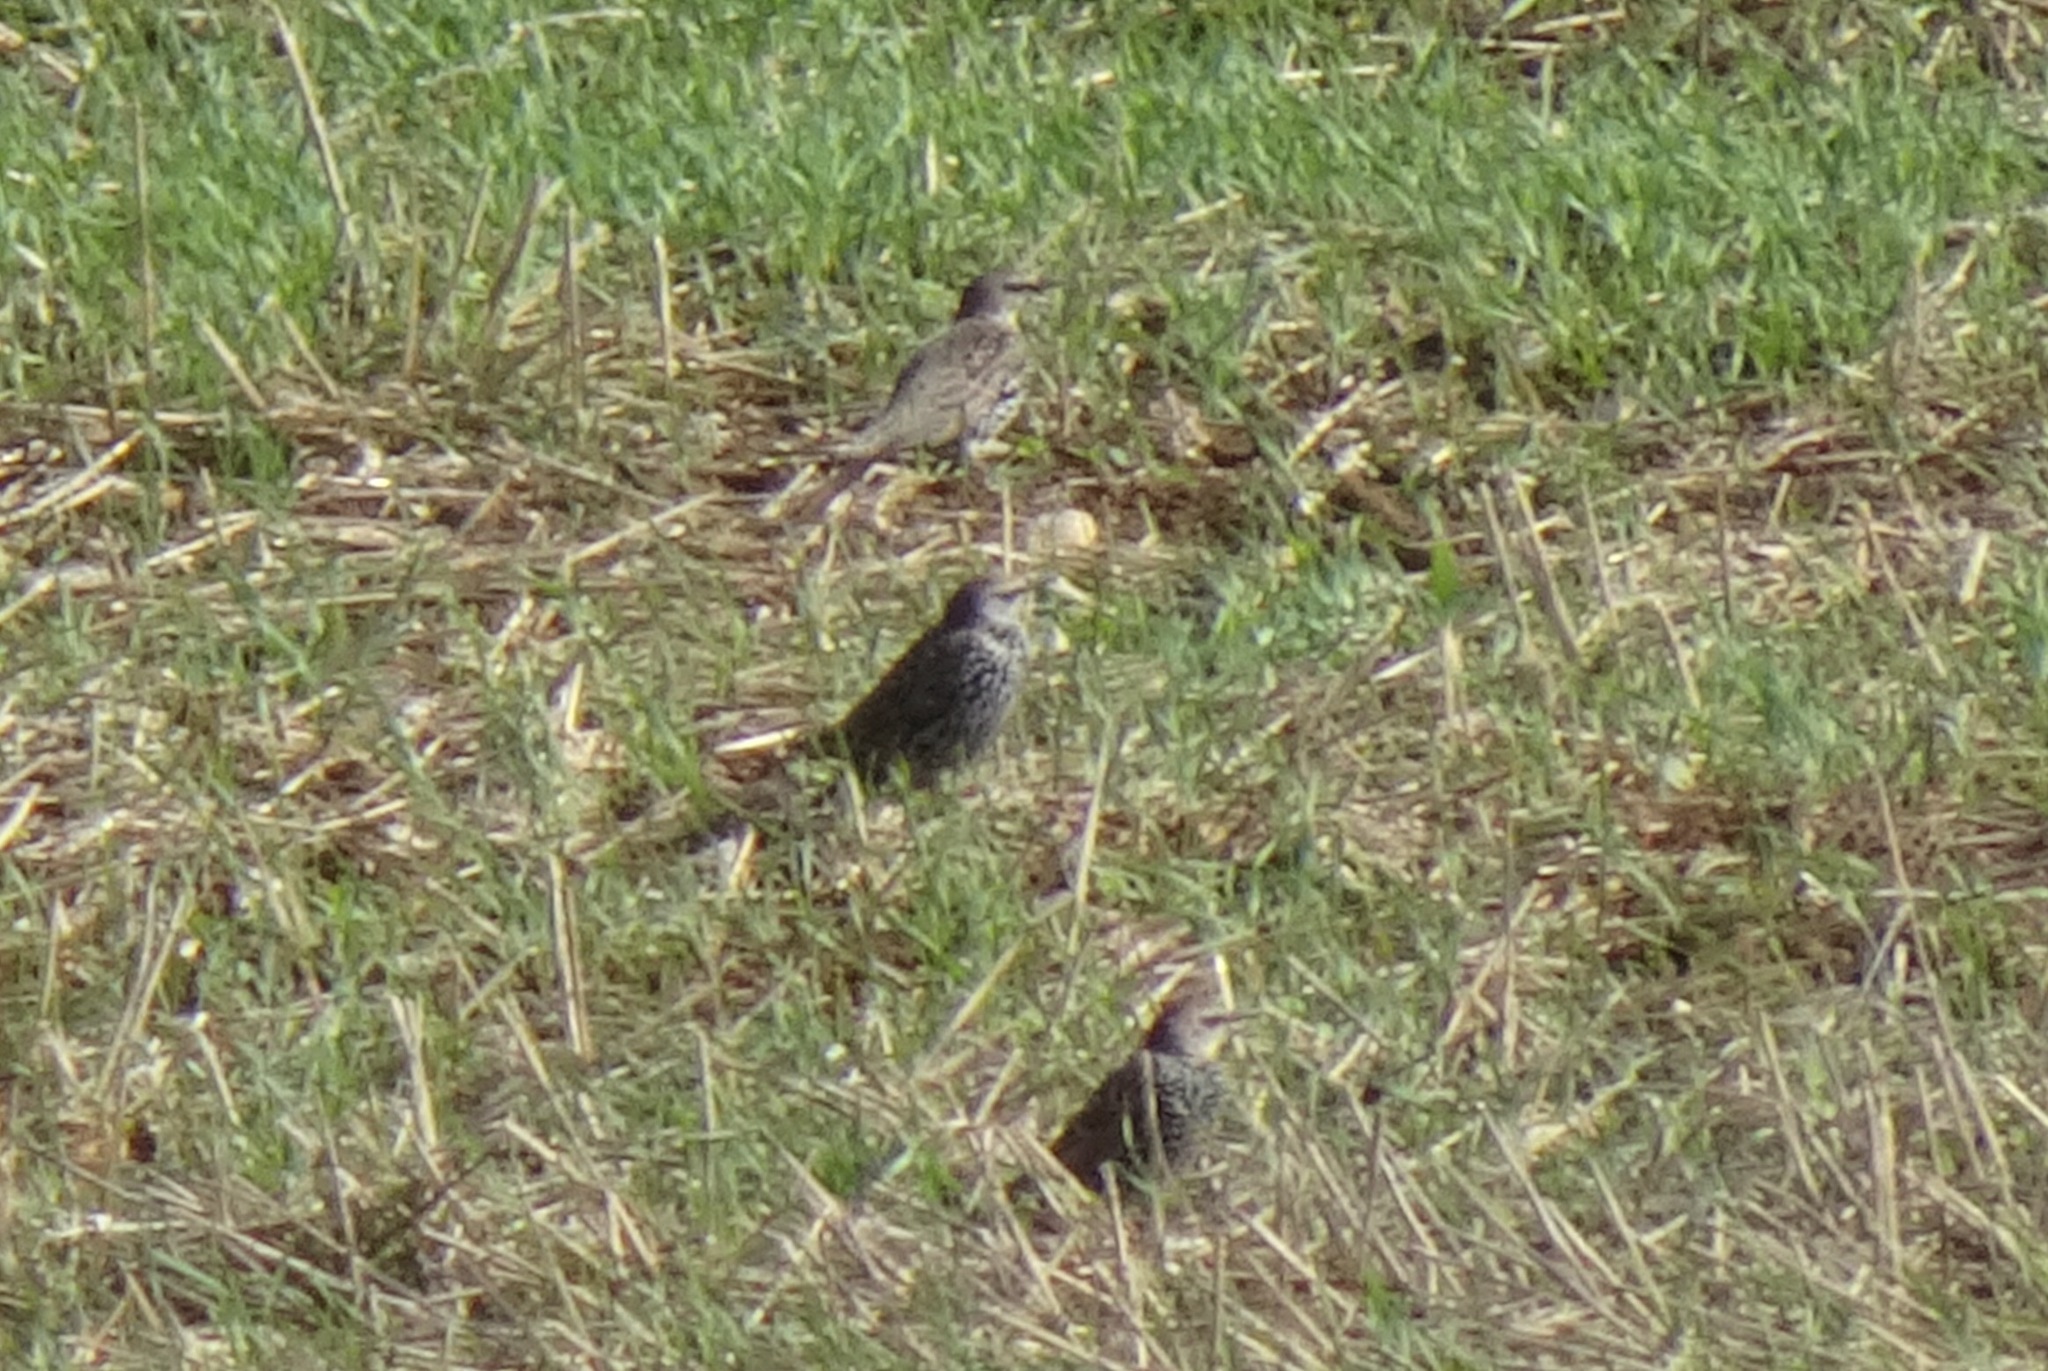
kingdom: Animalia
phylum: Chordata
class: Aves
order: Passeriformes
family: Sturnidae
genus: Sturnus
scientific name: Sturnus vulgaris
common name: Common starling
